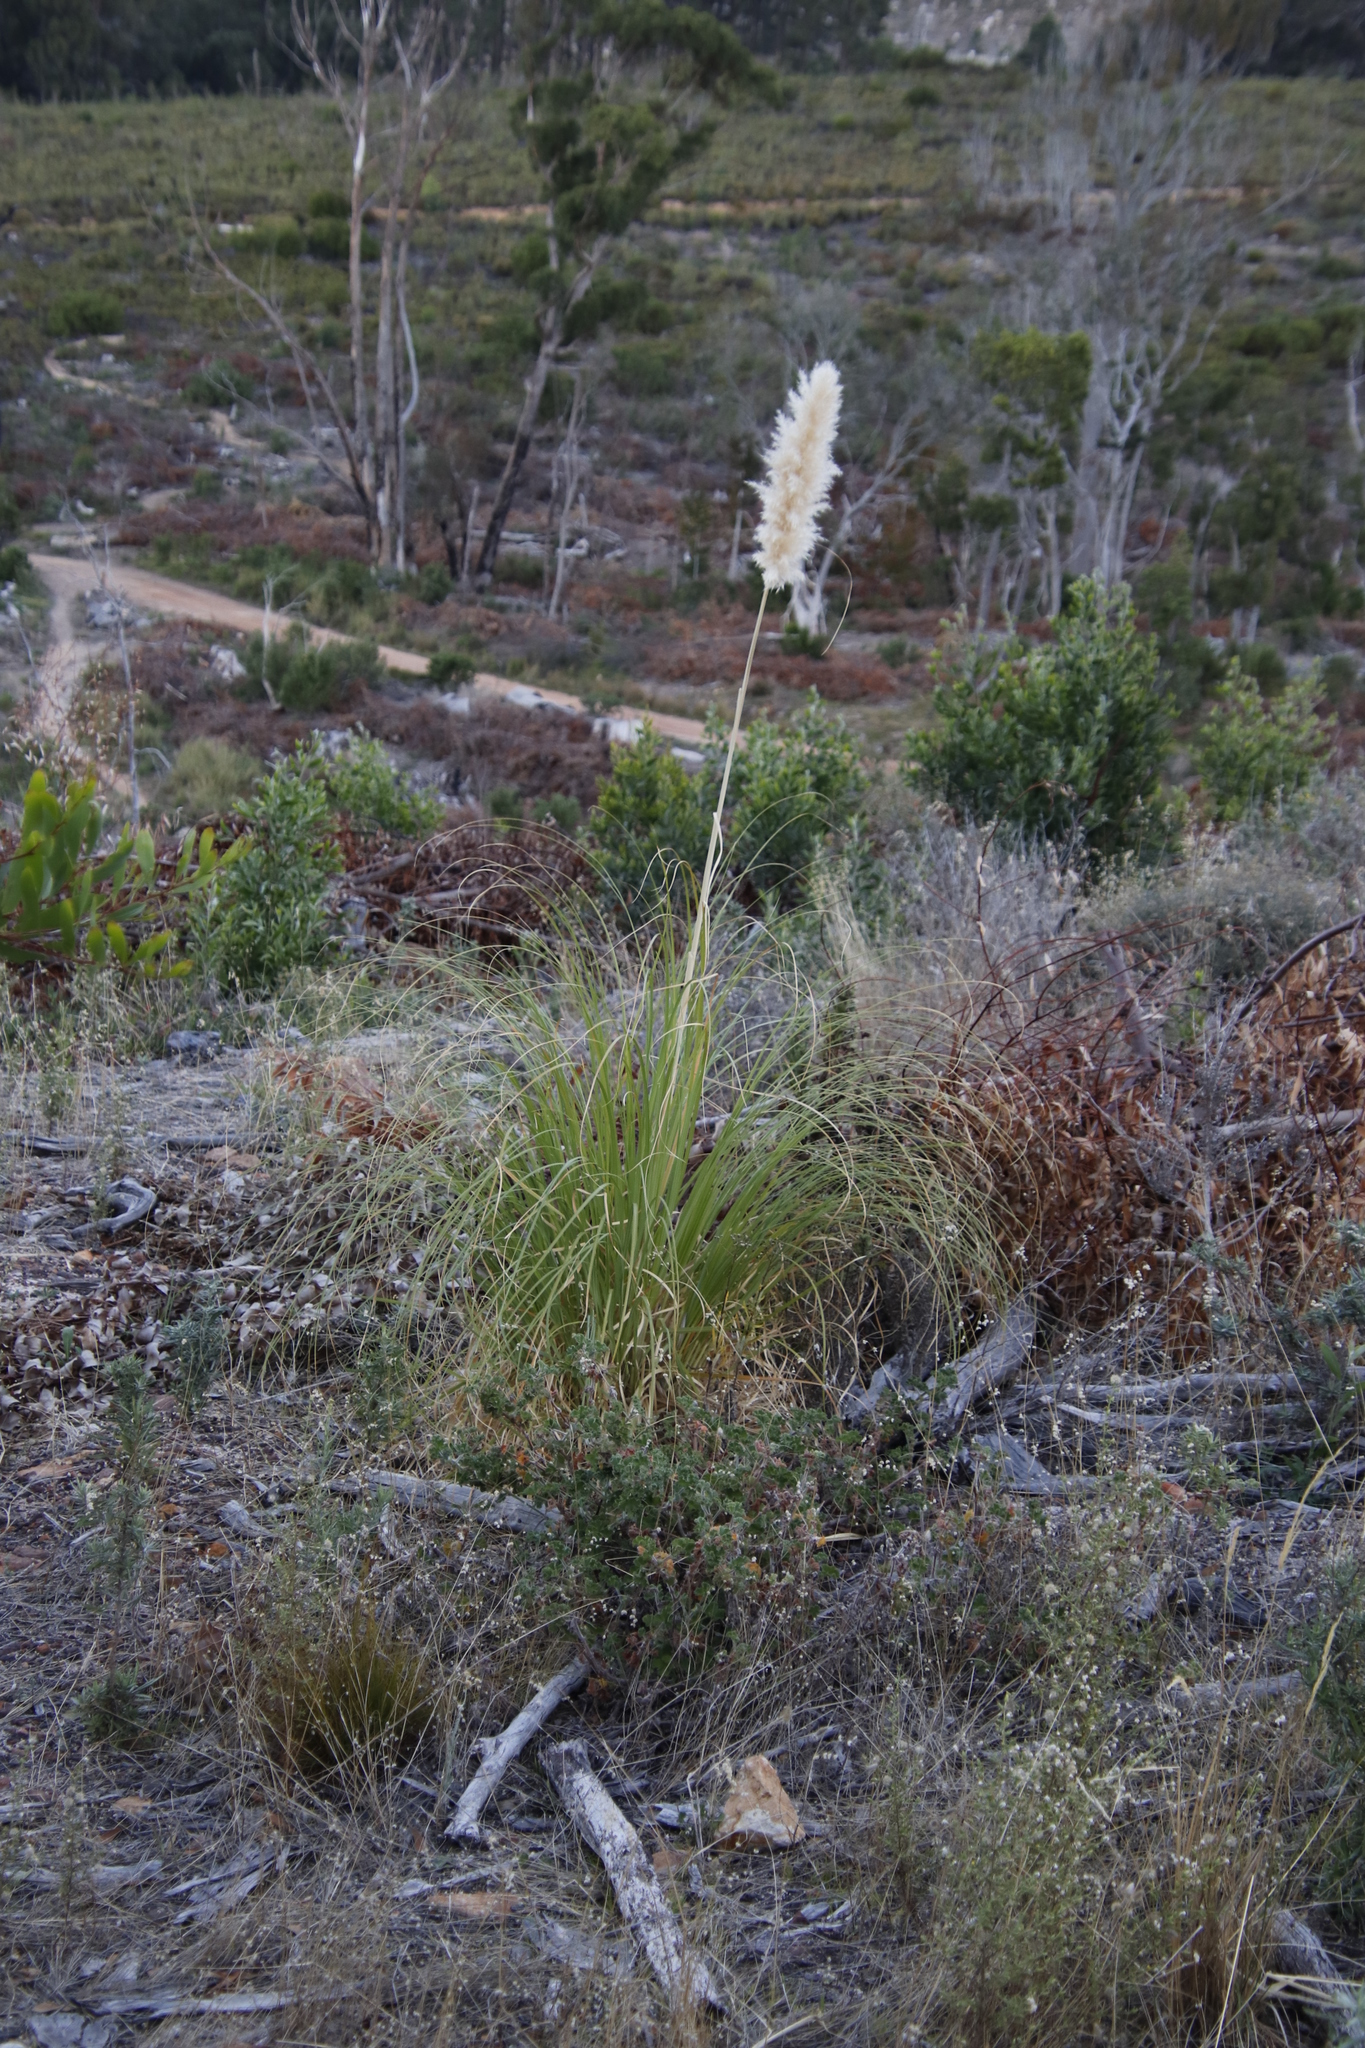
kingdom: Plantae
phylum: Tracheophyta
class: Liliopsida
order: Poales
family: Poaceae
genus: Cortaderia
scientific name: Cortaderia selloana
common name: Uruguayan pampas grass
